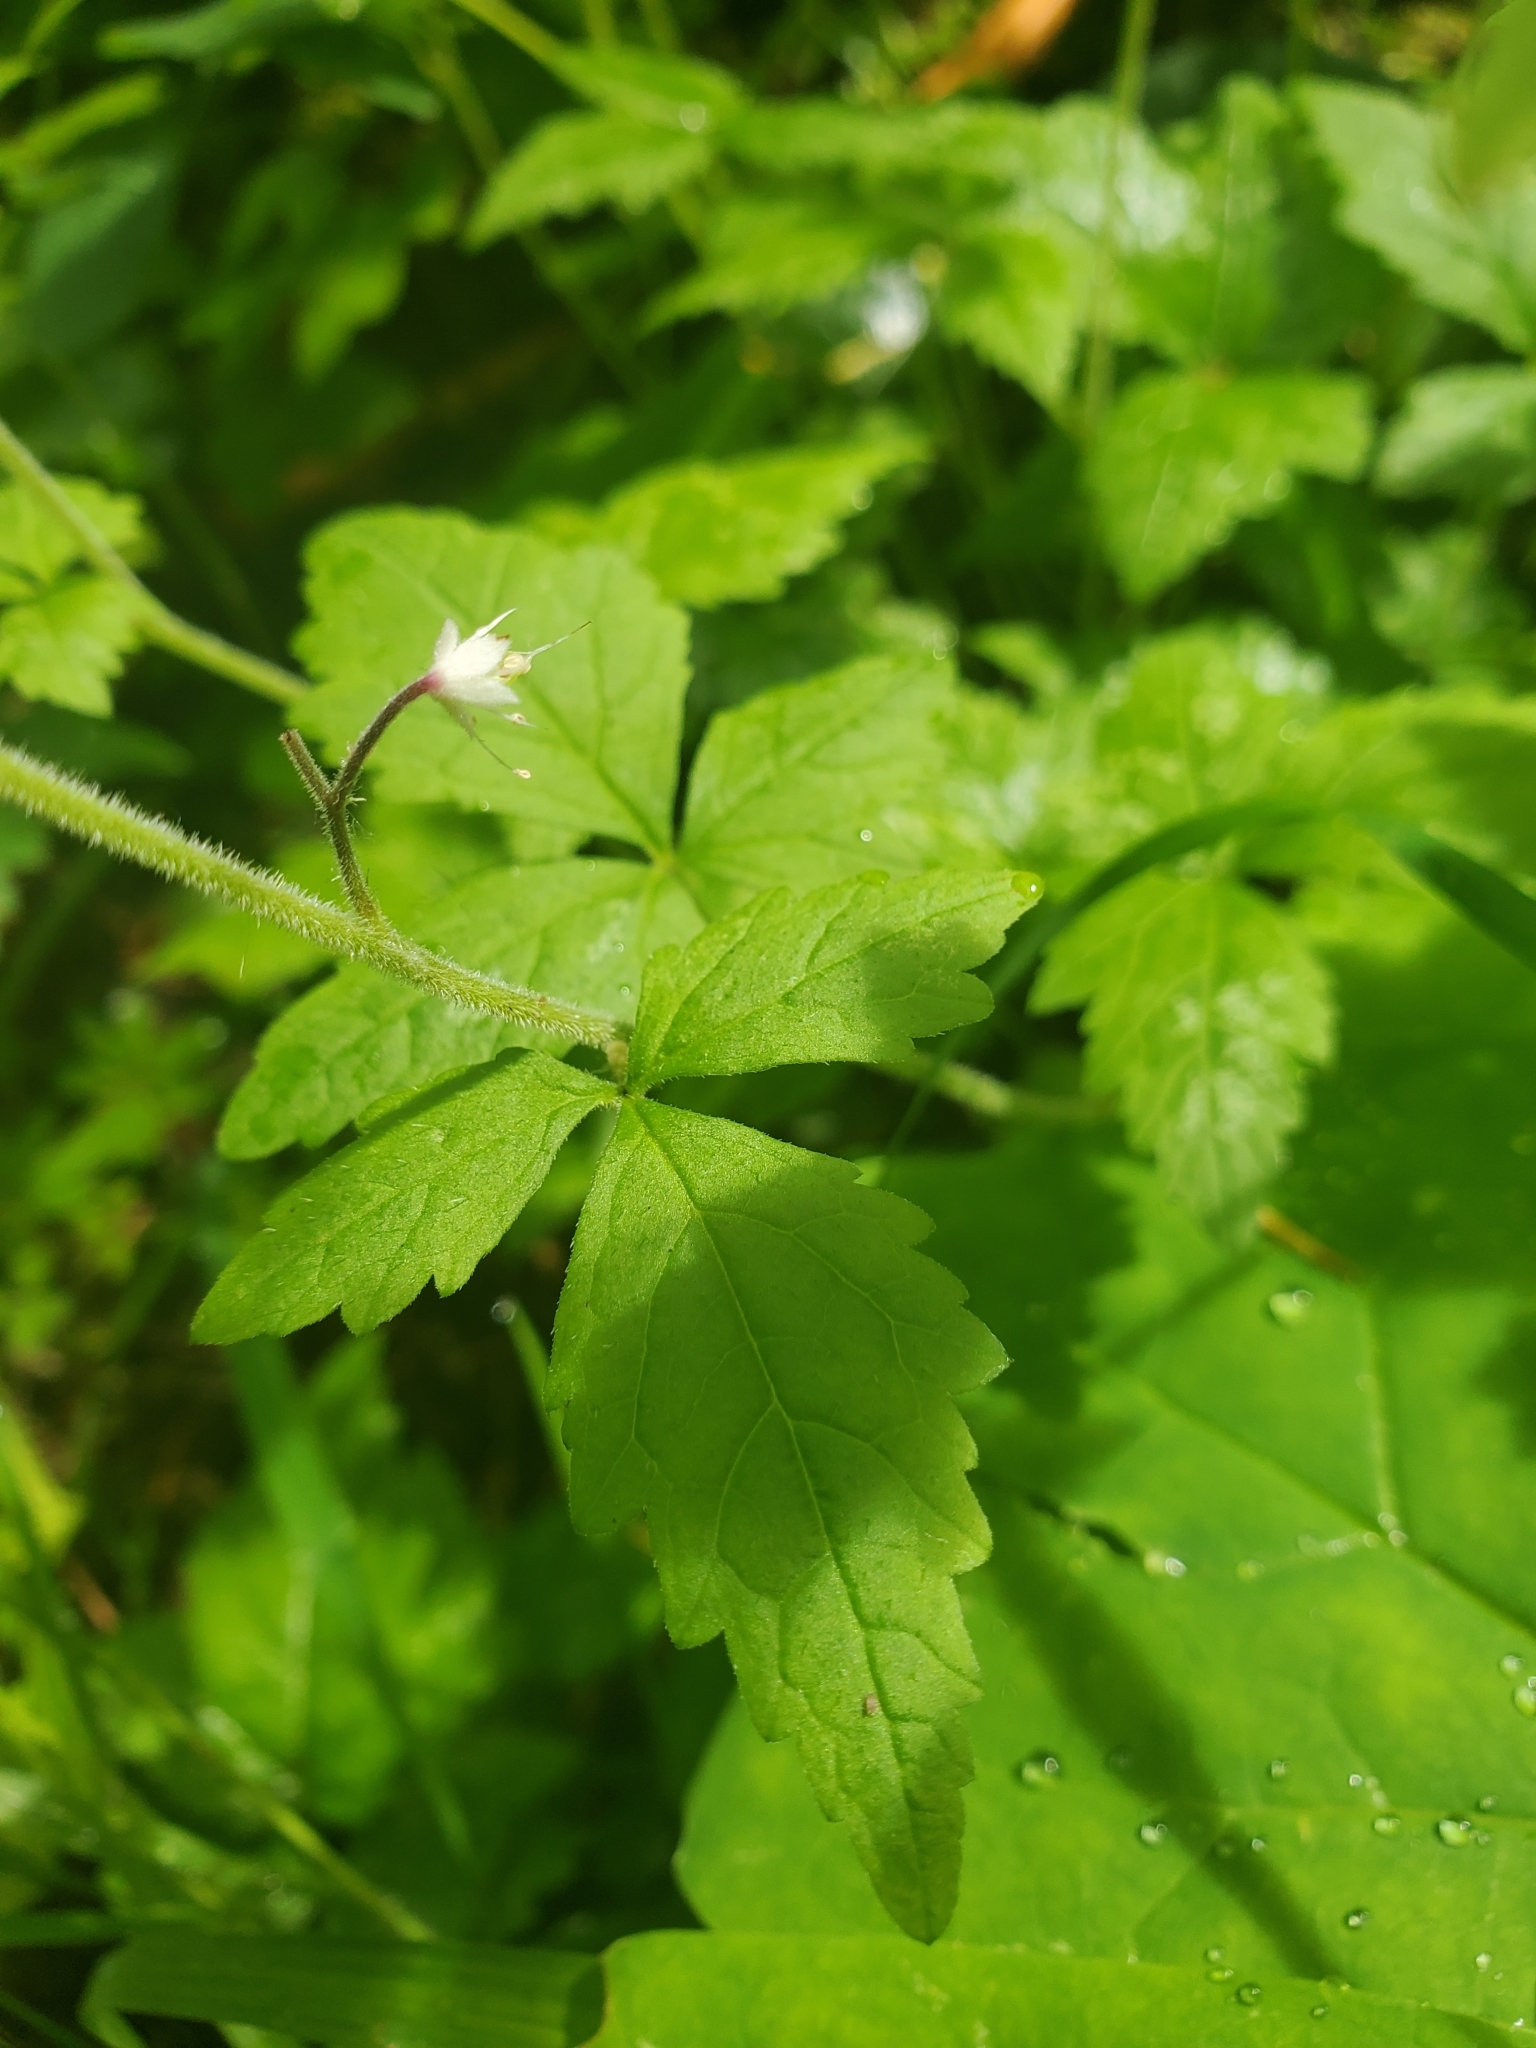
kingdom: Plantae
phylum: Tracheophyta
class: Magnoliopsida
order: Saxifragales
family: Saxifragaceae
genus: Tiarella
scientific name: Tiarella trifoliata
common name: Sugar-scoop
